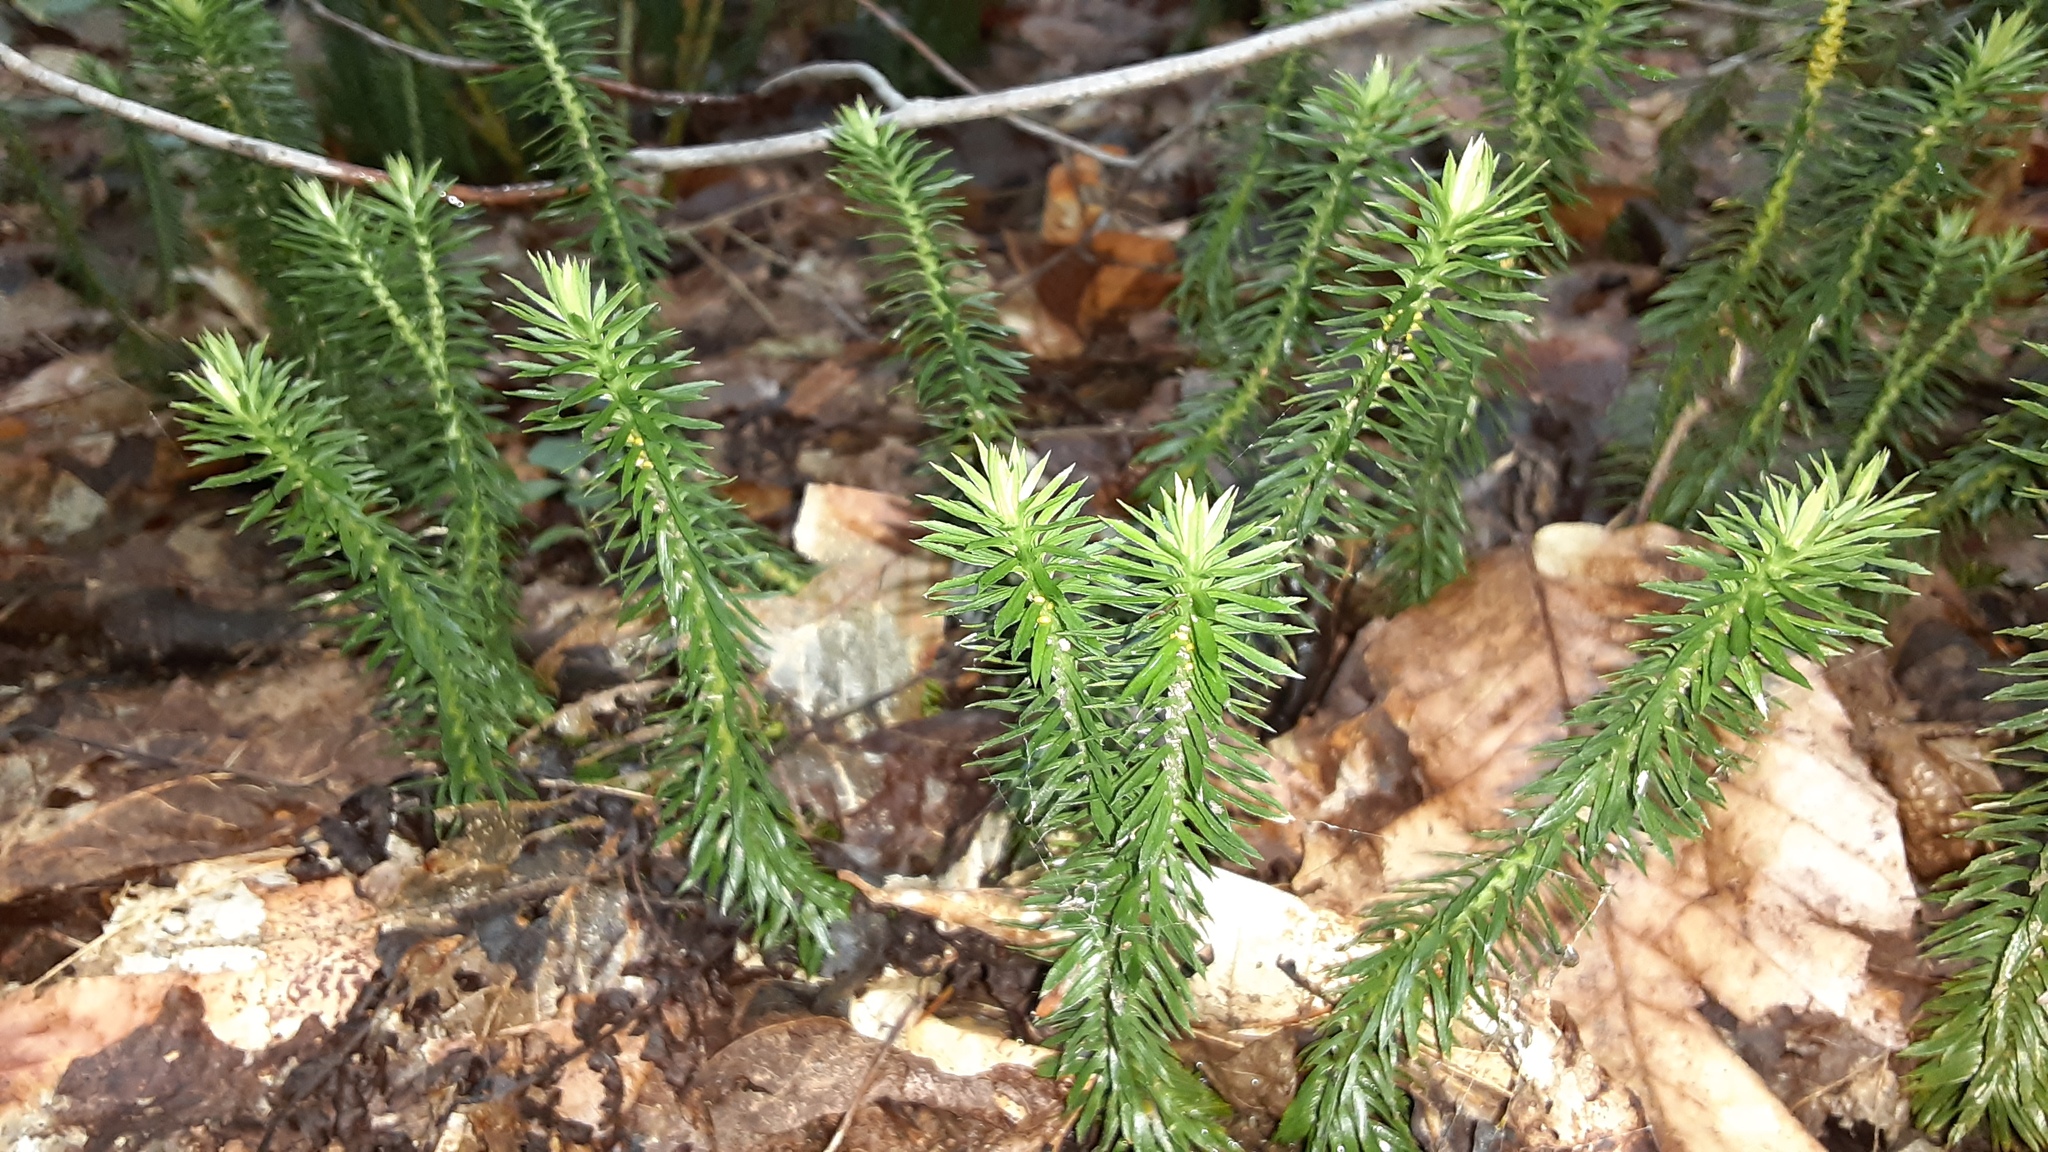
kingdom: Plantae
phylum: Tracheophyta
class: Lycopodiopsida
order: Lycopodiales
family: Lycopodiaceae
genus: Huperzia
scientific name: Huperzia lucidula
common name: Shining clubmoss
